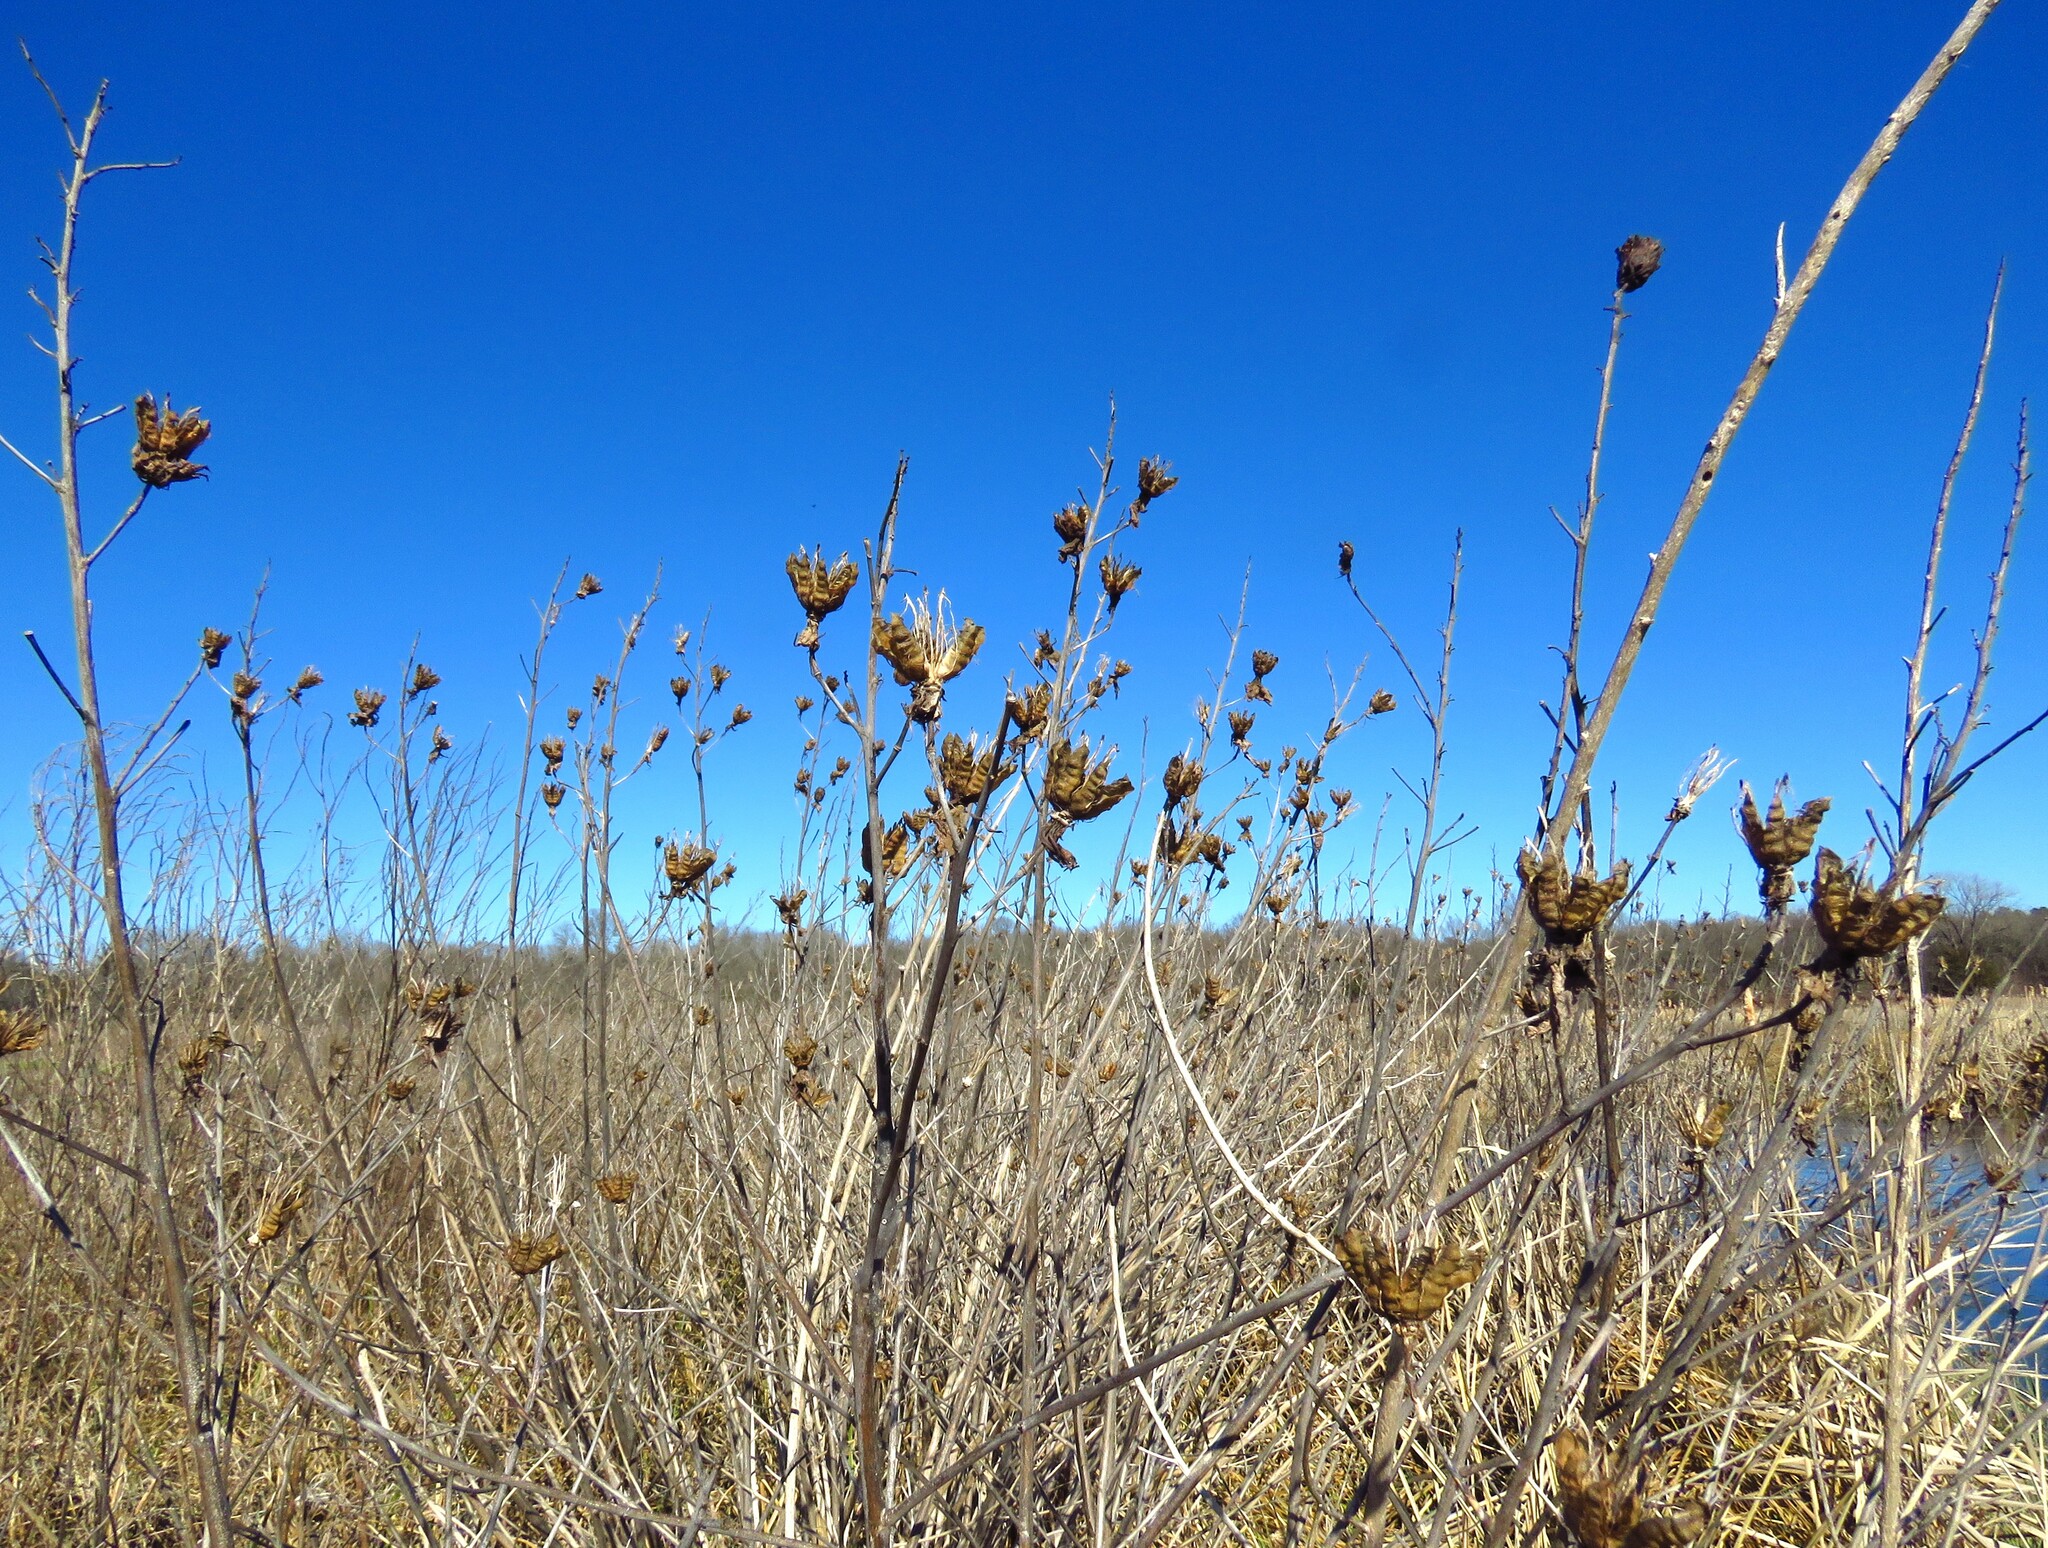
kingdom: Plantae
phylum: Tracheophyta
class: Magnoliopsida
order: Malvales
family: Malvaceae
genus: Hibiscus
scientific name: Hibiscus laevis
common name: Scarlet rose-mallow
